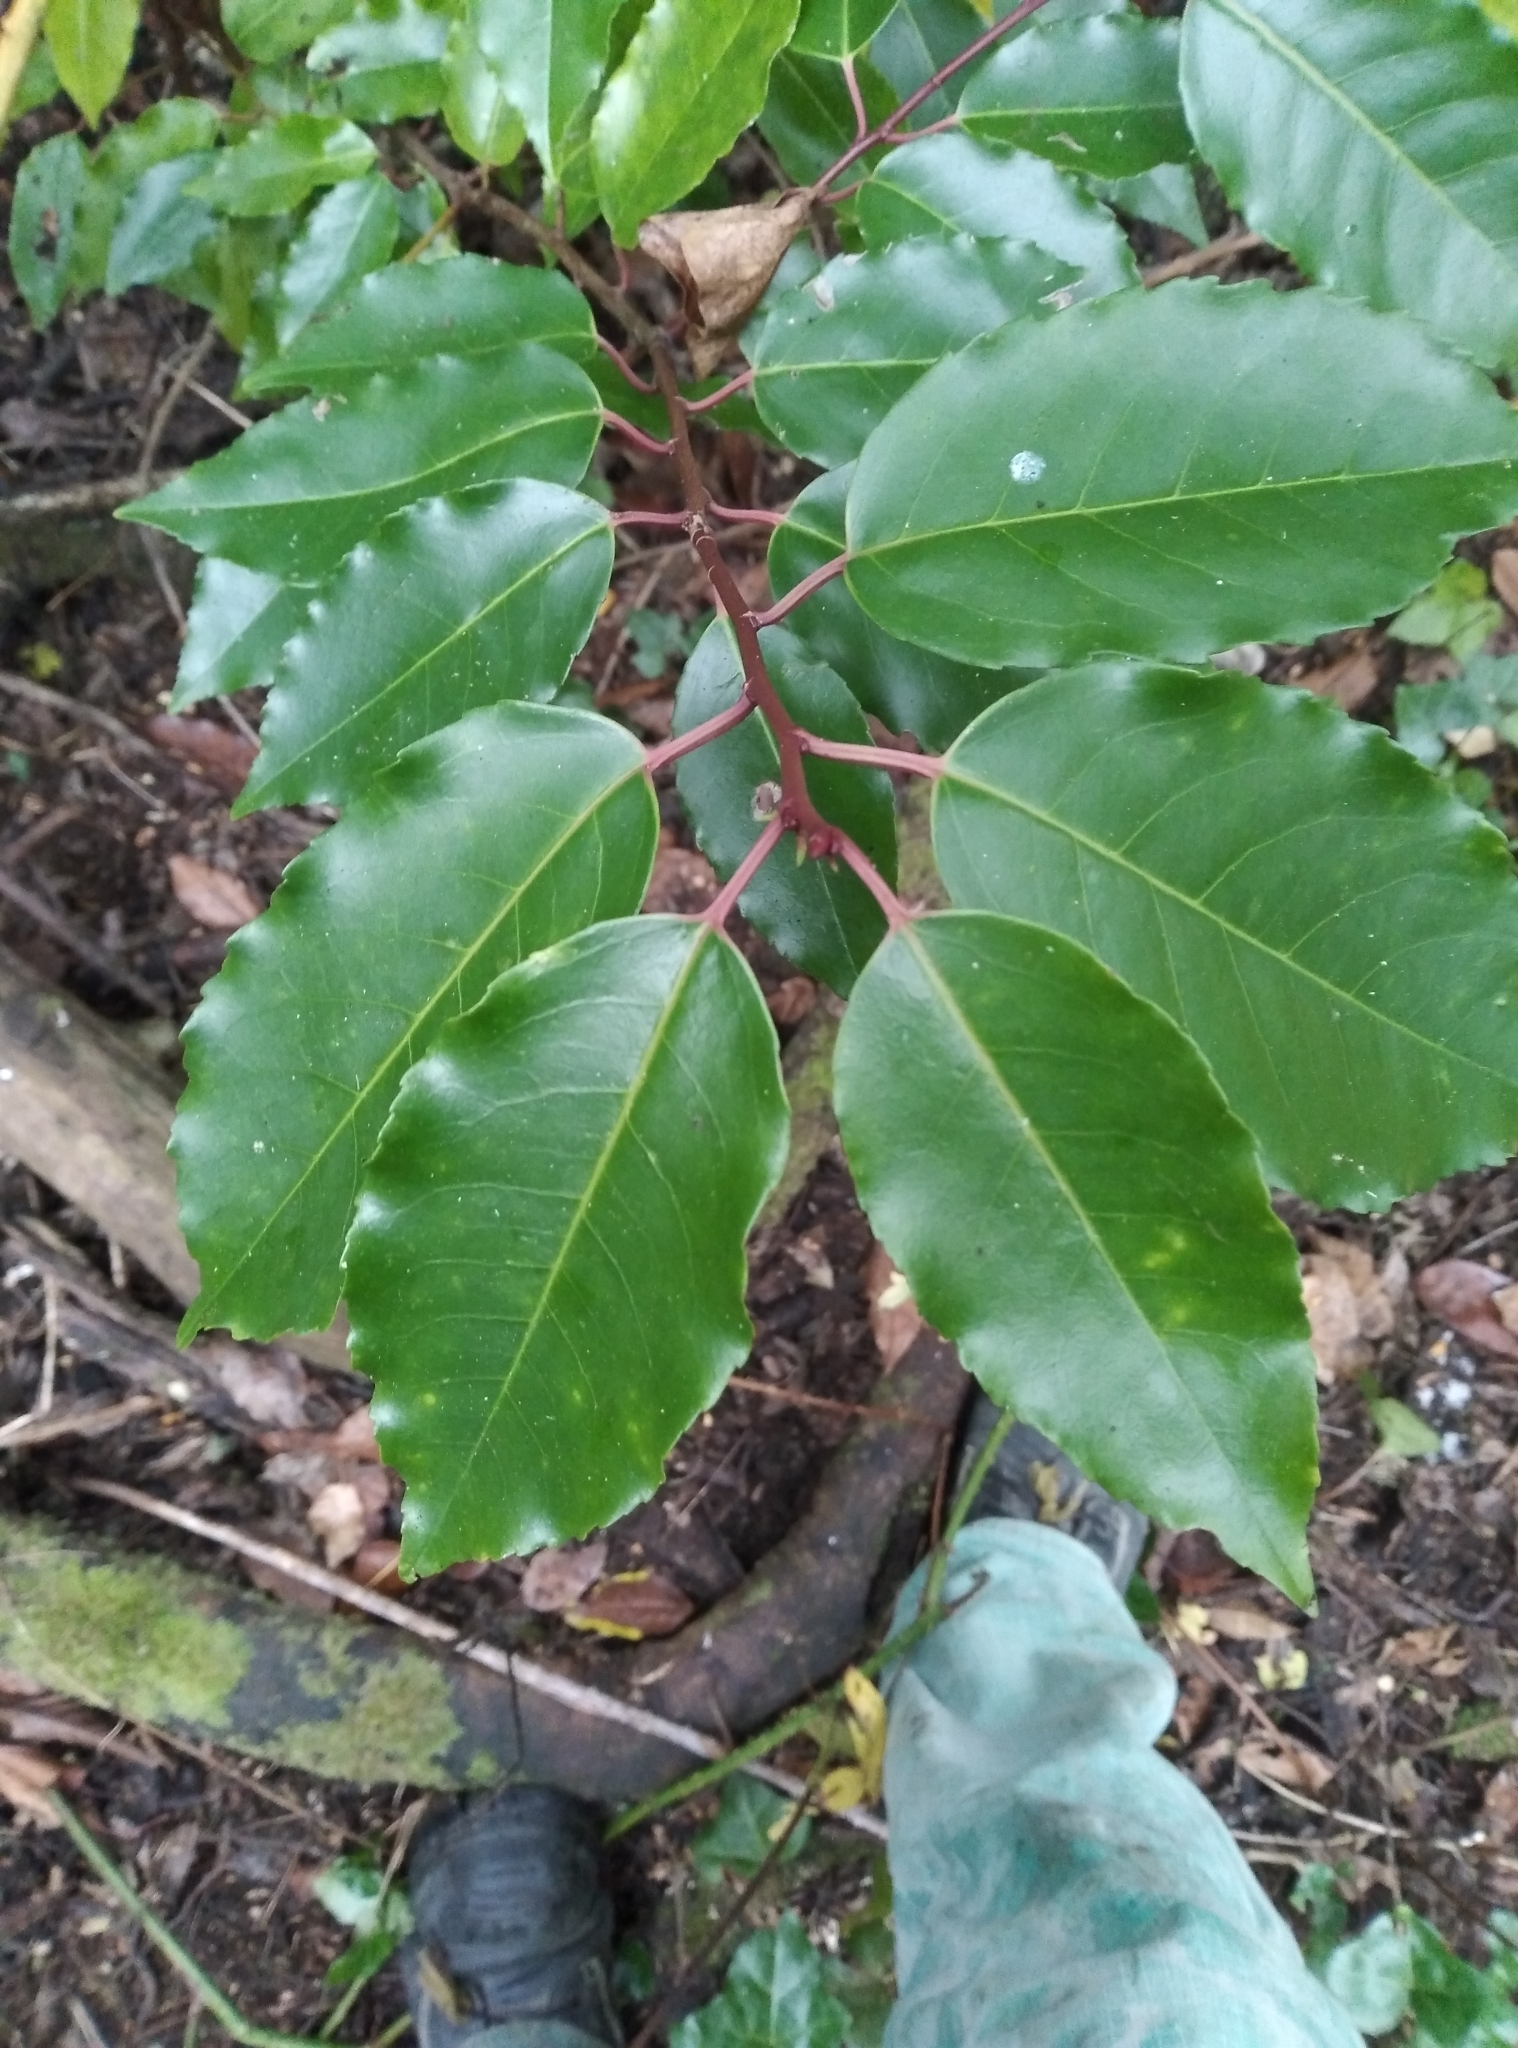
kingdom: Plantae
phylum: Tracheophyta
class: Magnoliopsida
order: Rosales
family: Rosaceae
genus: Prunus
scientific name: Prunus lusitanica
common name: Portugal laurel
